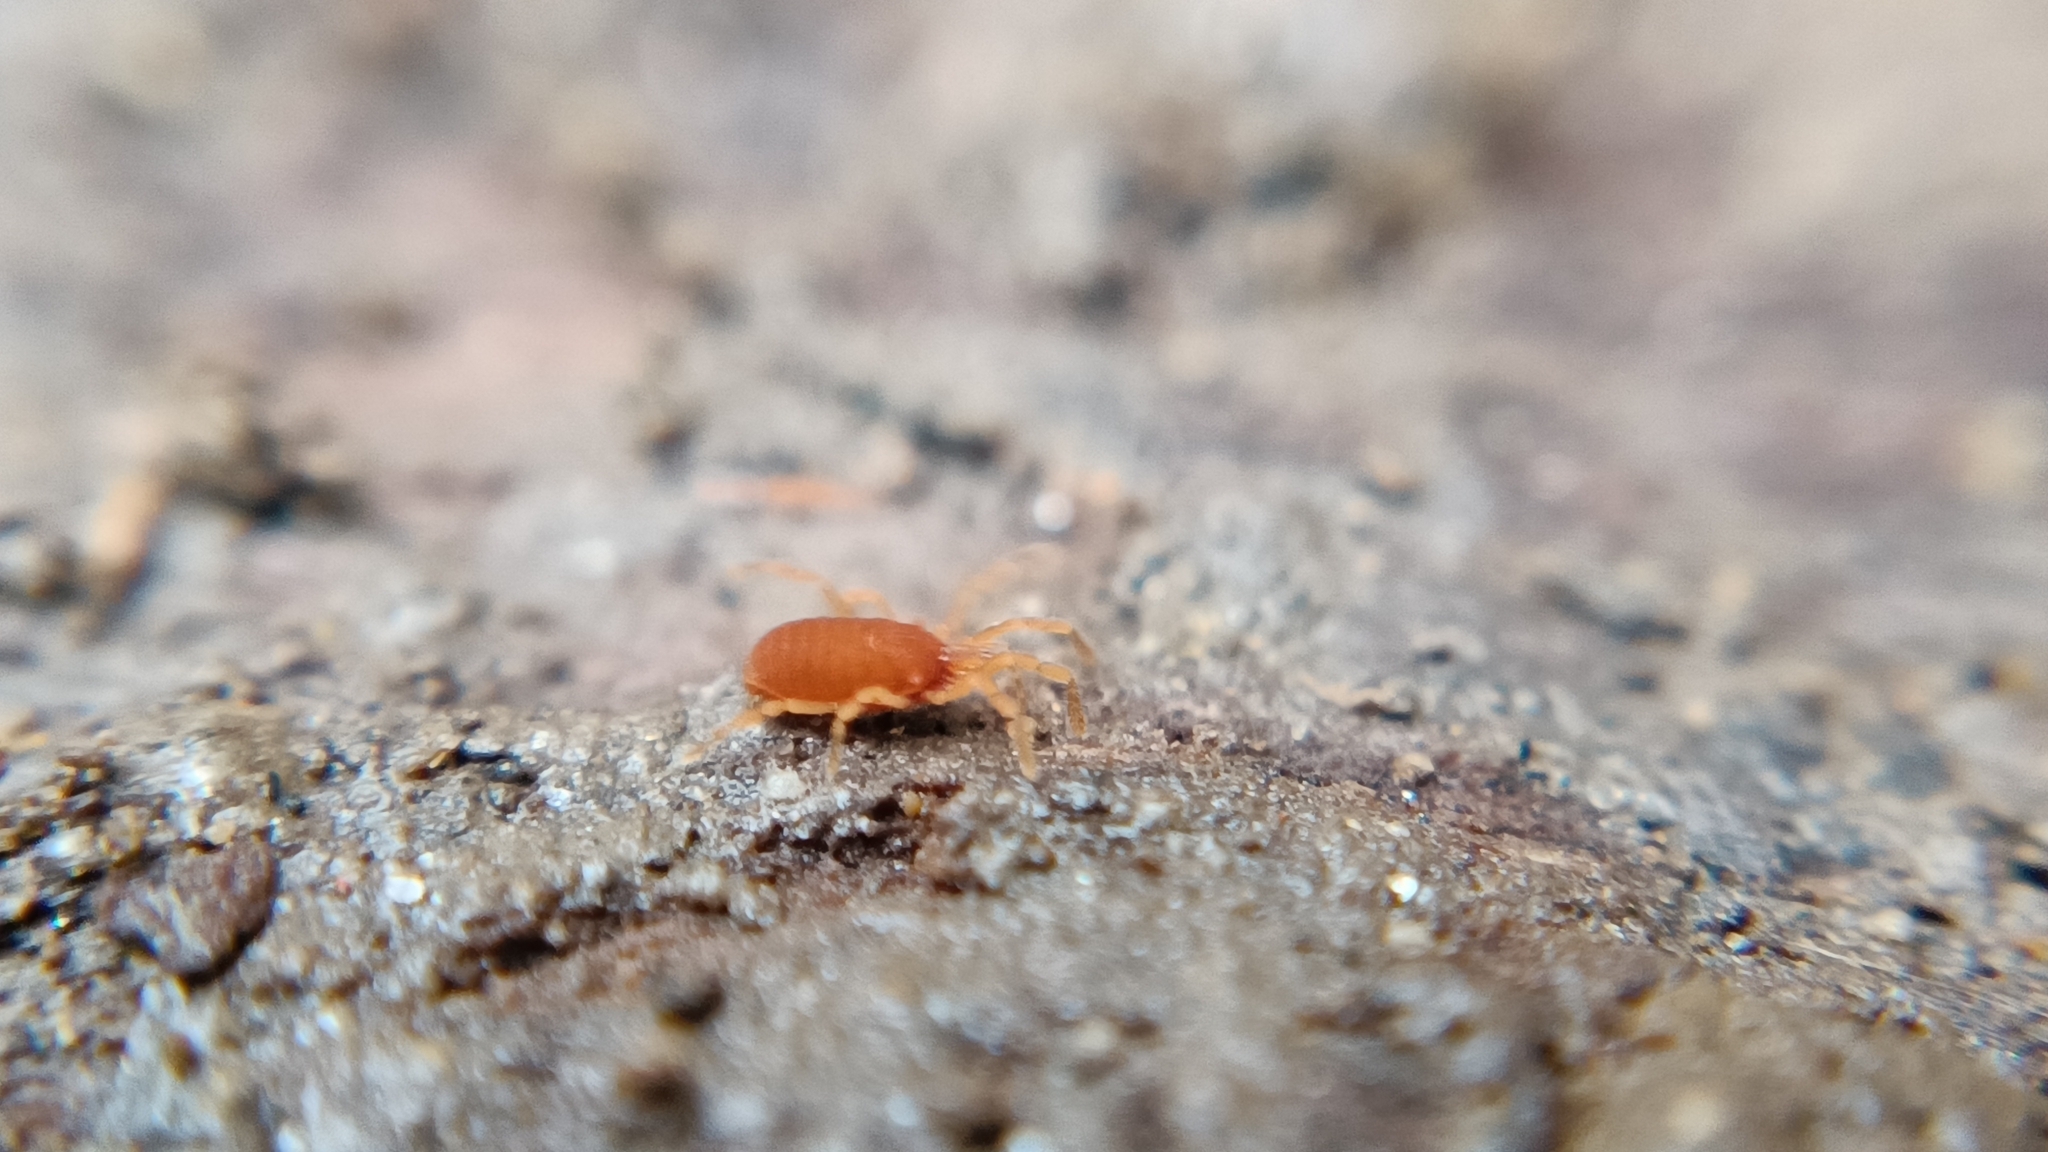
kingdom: Animalia
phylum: Arthropoda
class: Arachnida
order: Opiliones
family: Sironidae
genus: Siro
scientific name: Siro rubens
